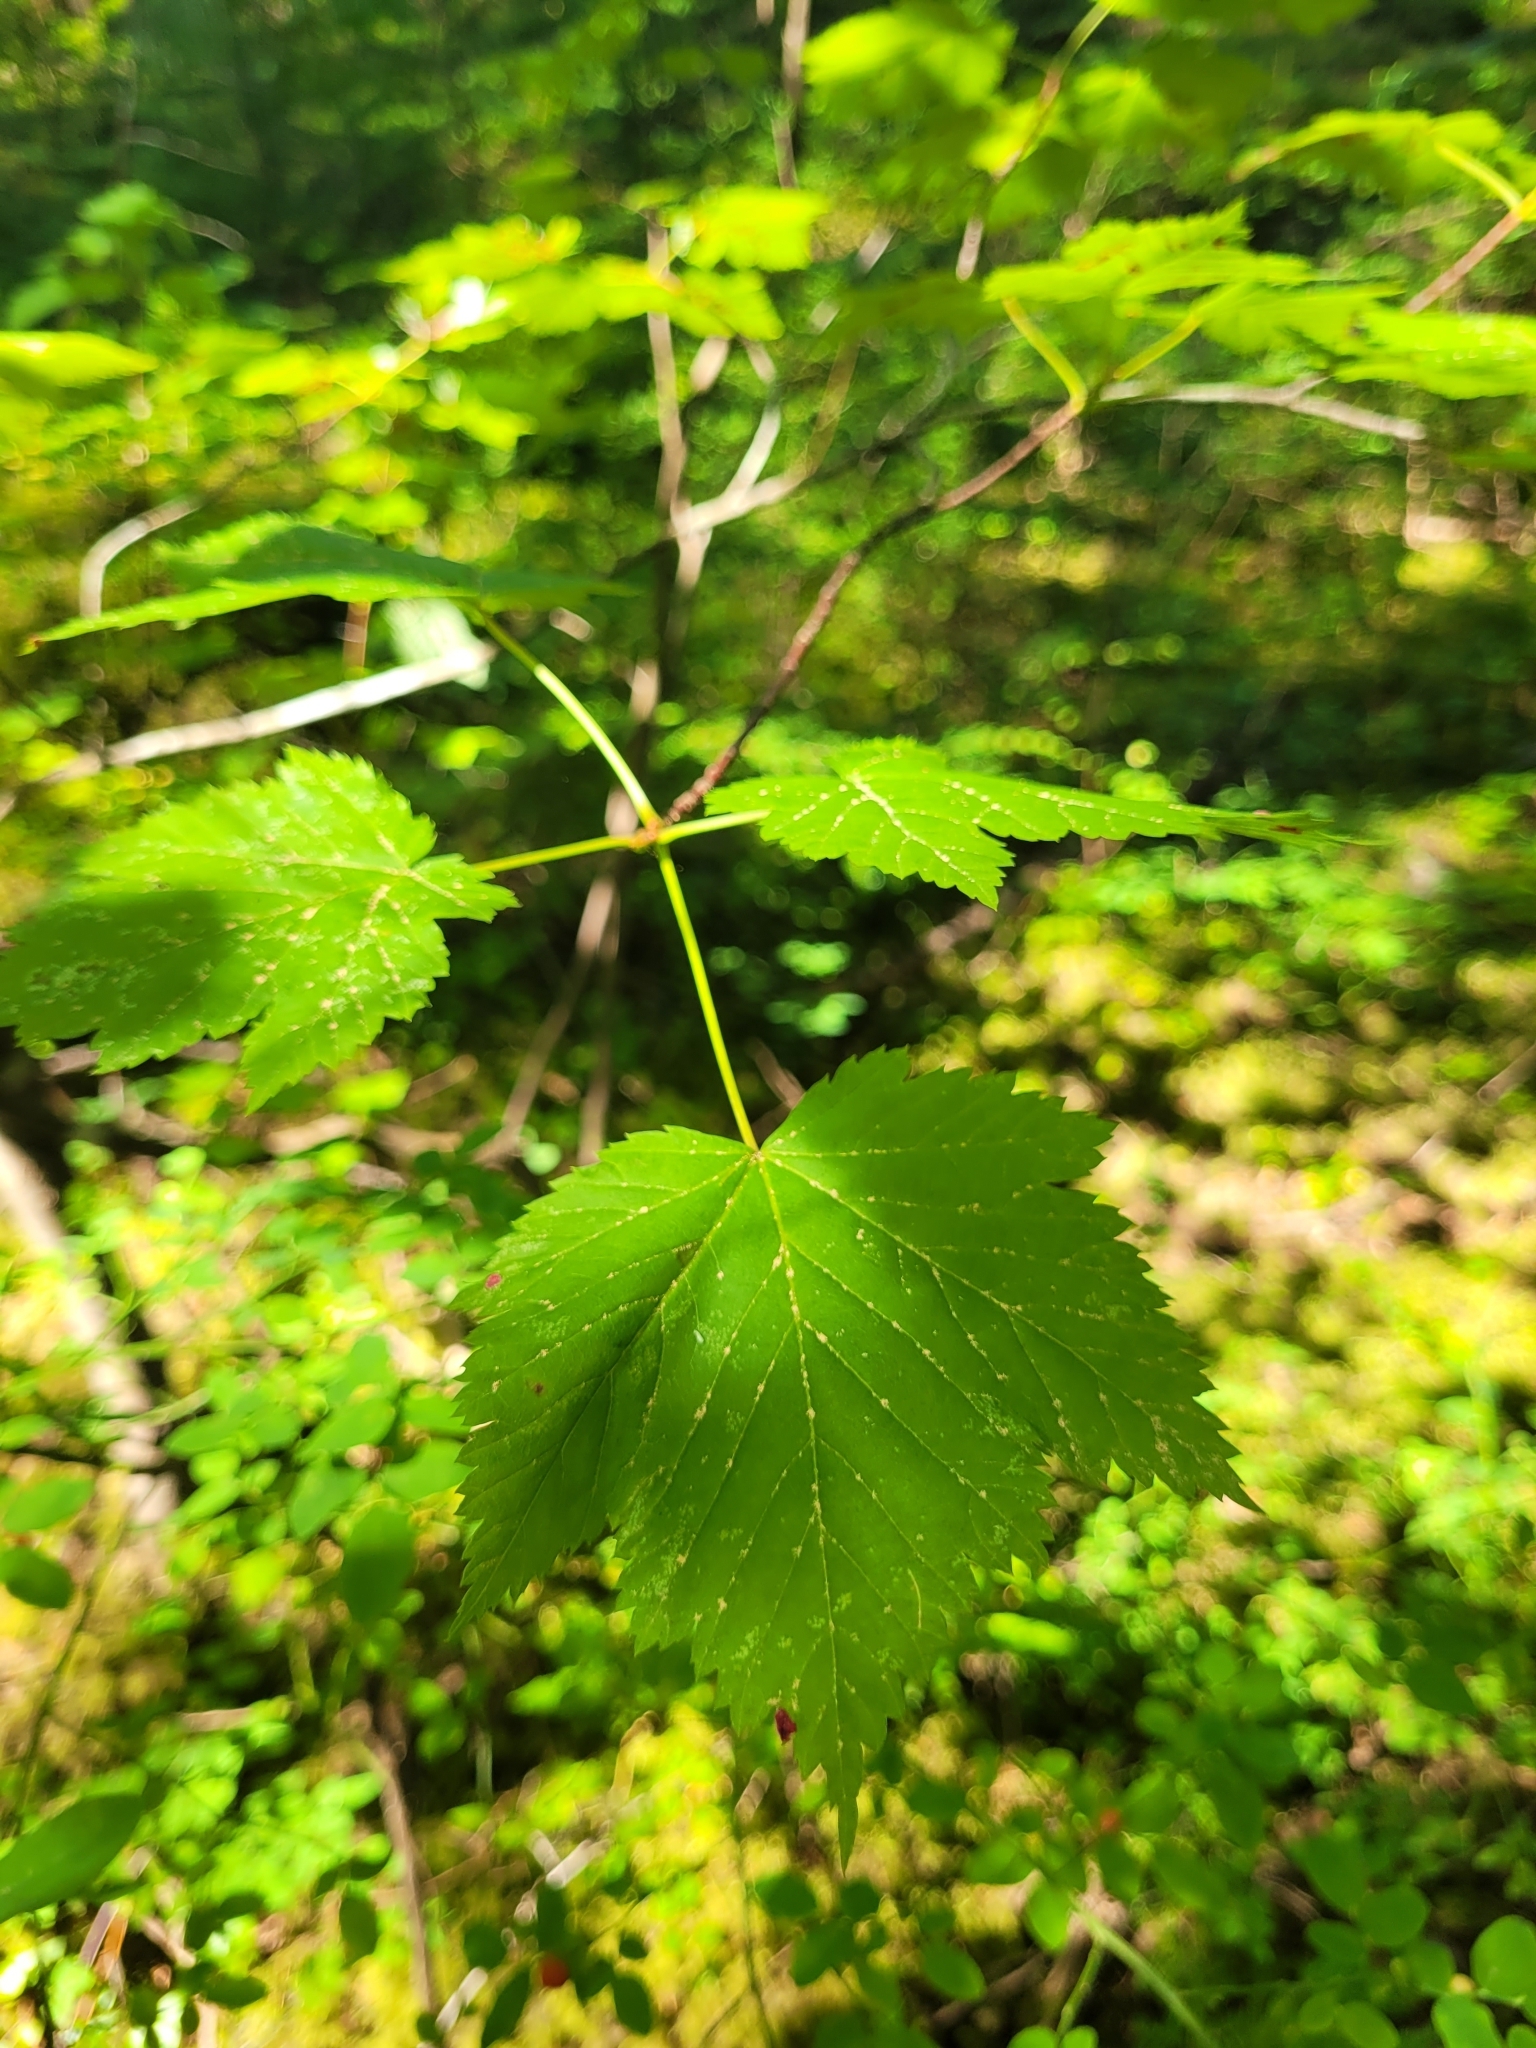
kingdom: Plantae
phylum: Tracheophyta
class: Magnoliopsida
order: Sapindales
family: Sapindaceae
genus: Acer
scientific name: Acer glabrum
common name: Rocky mountain maple
